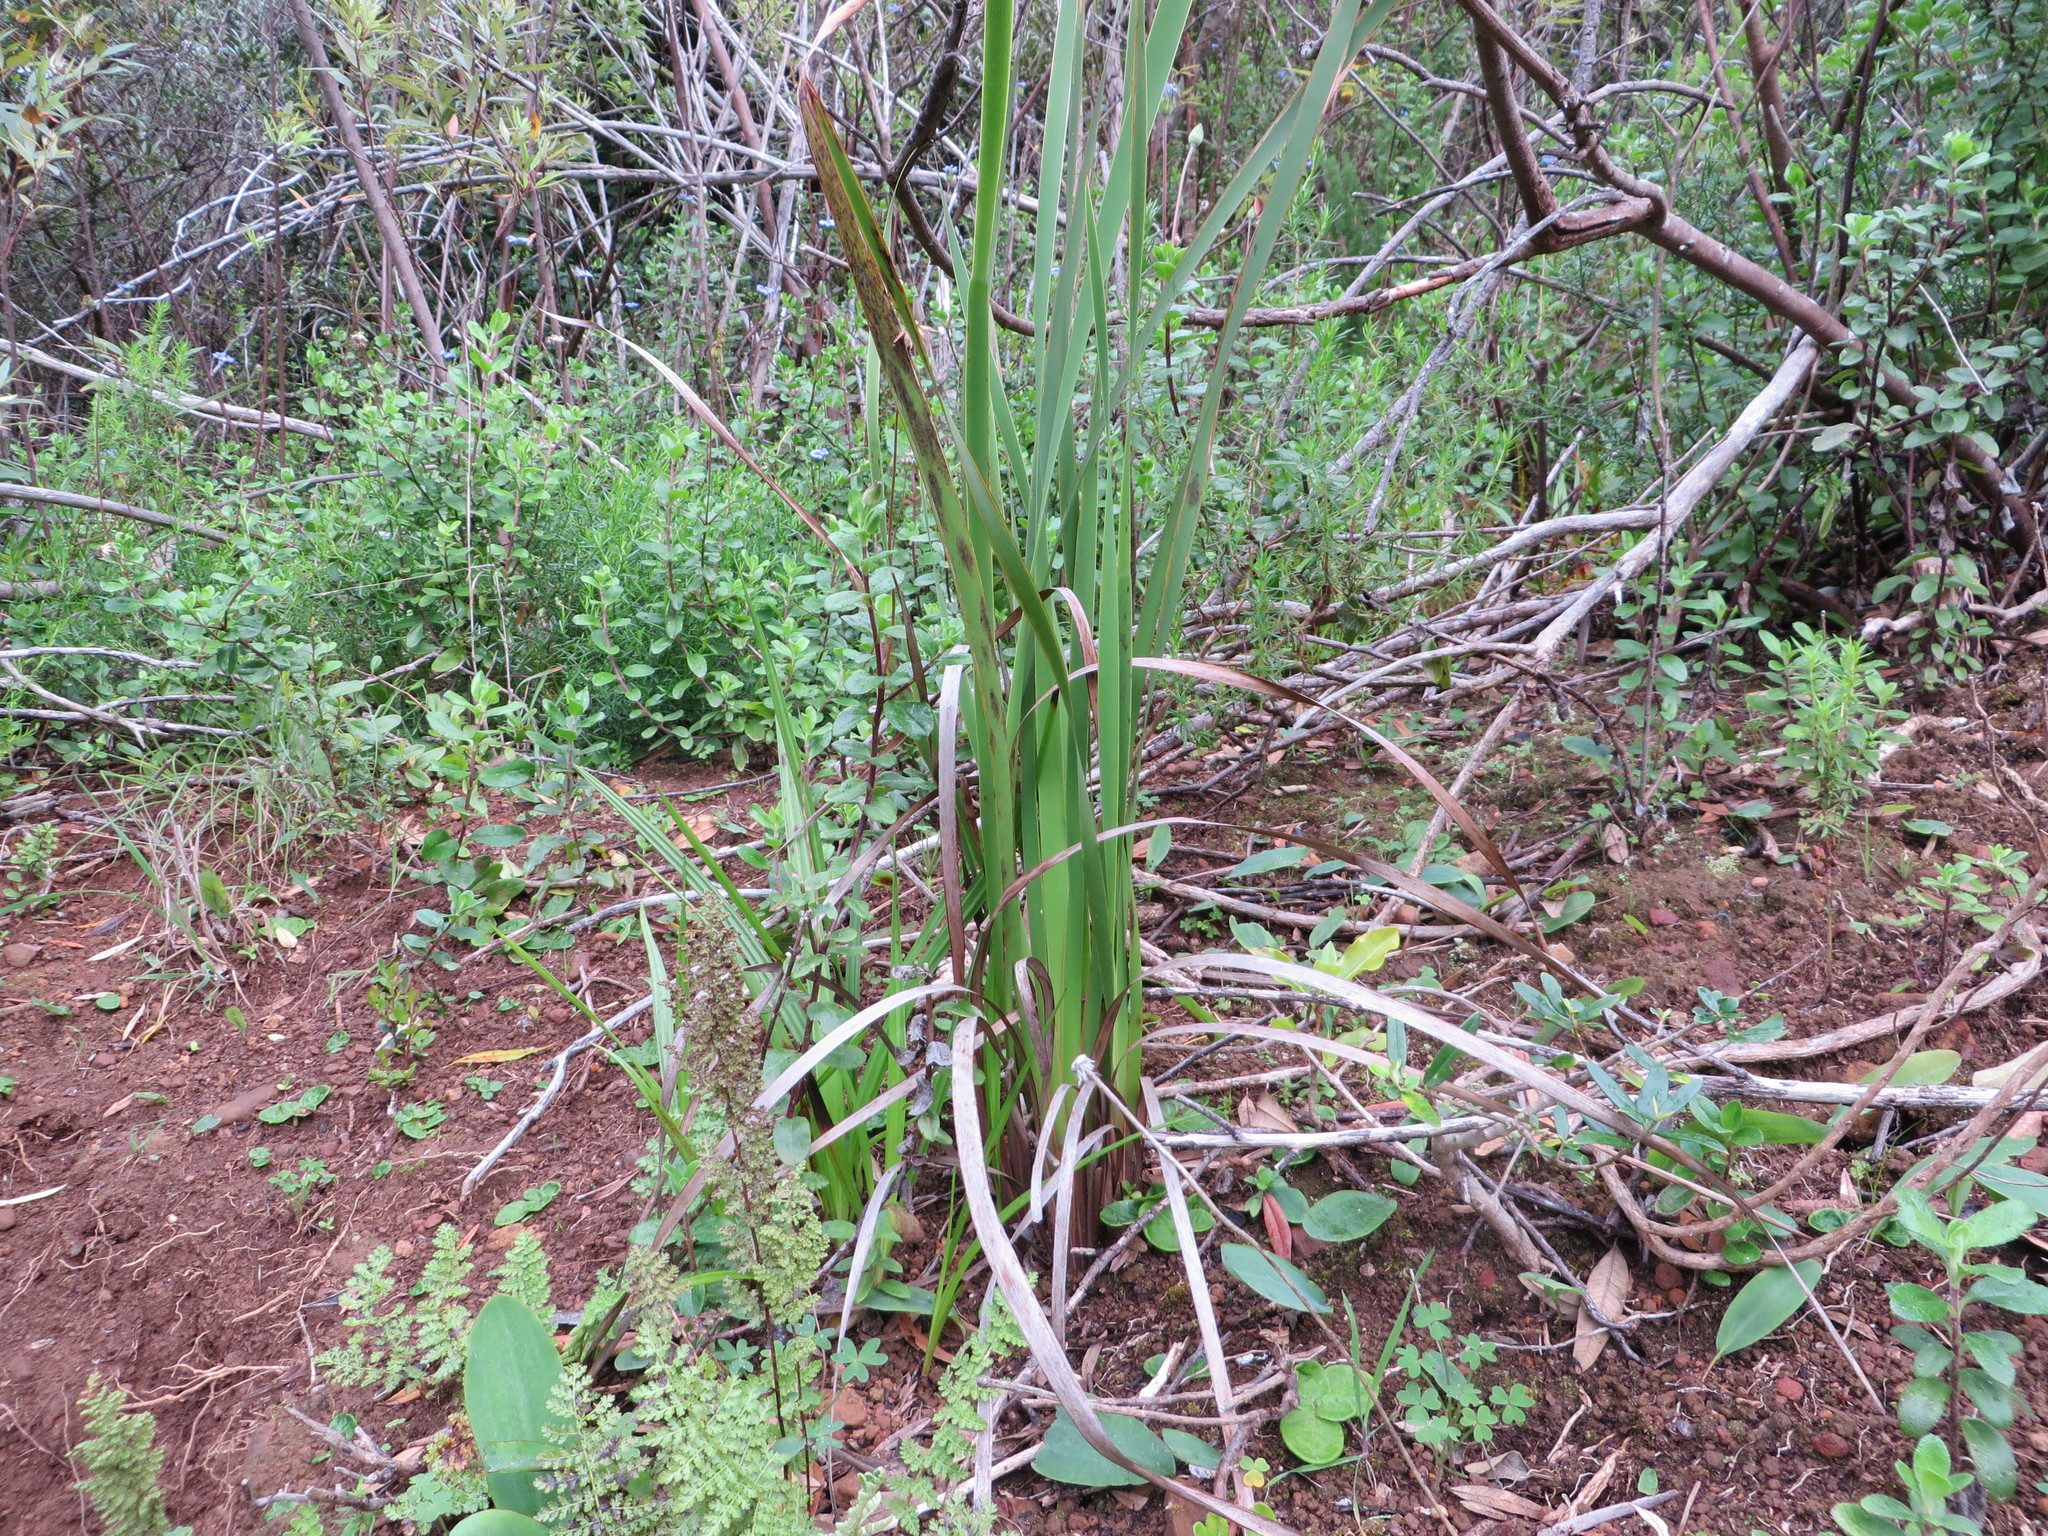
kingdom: Plantae
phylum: Tracheophyta
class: Liliopsida
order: Asparagales
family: Iridaceae
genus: Aristea
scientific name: Aristea capitata
